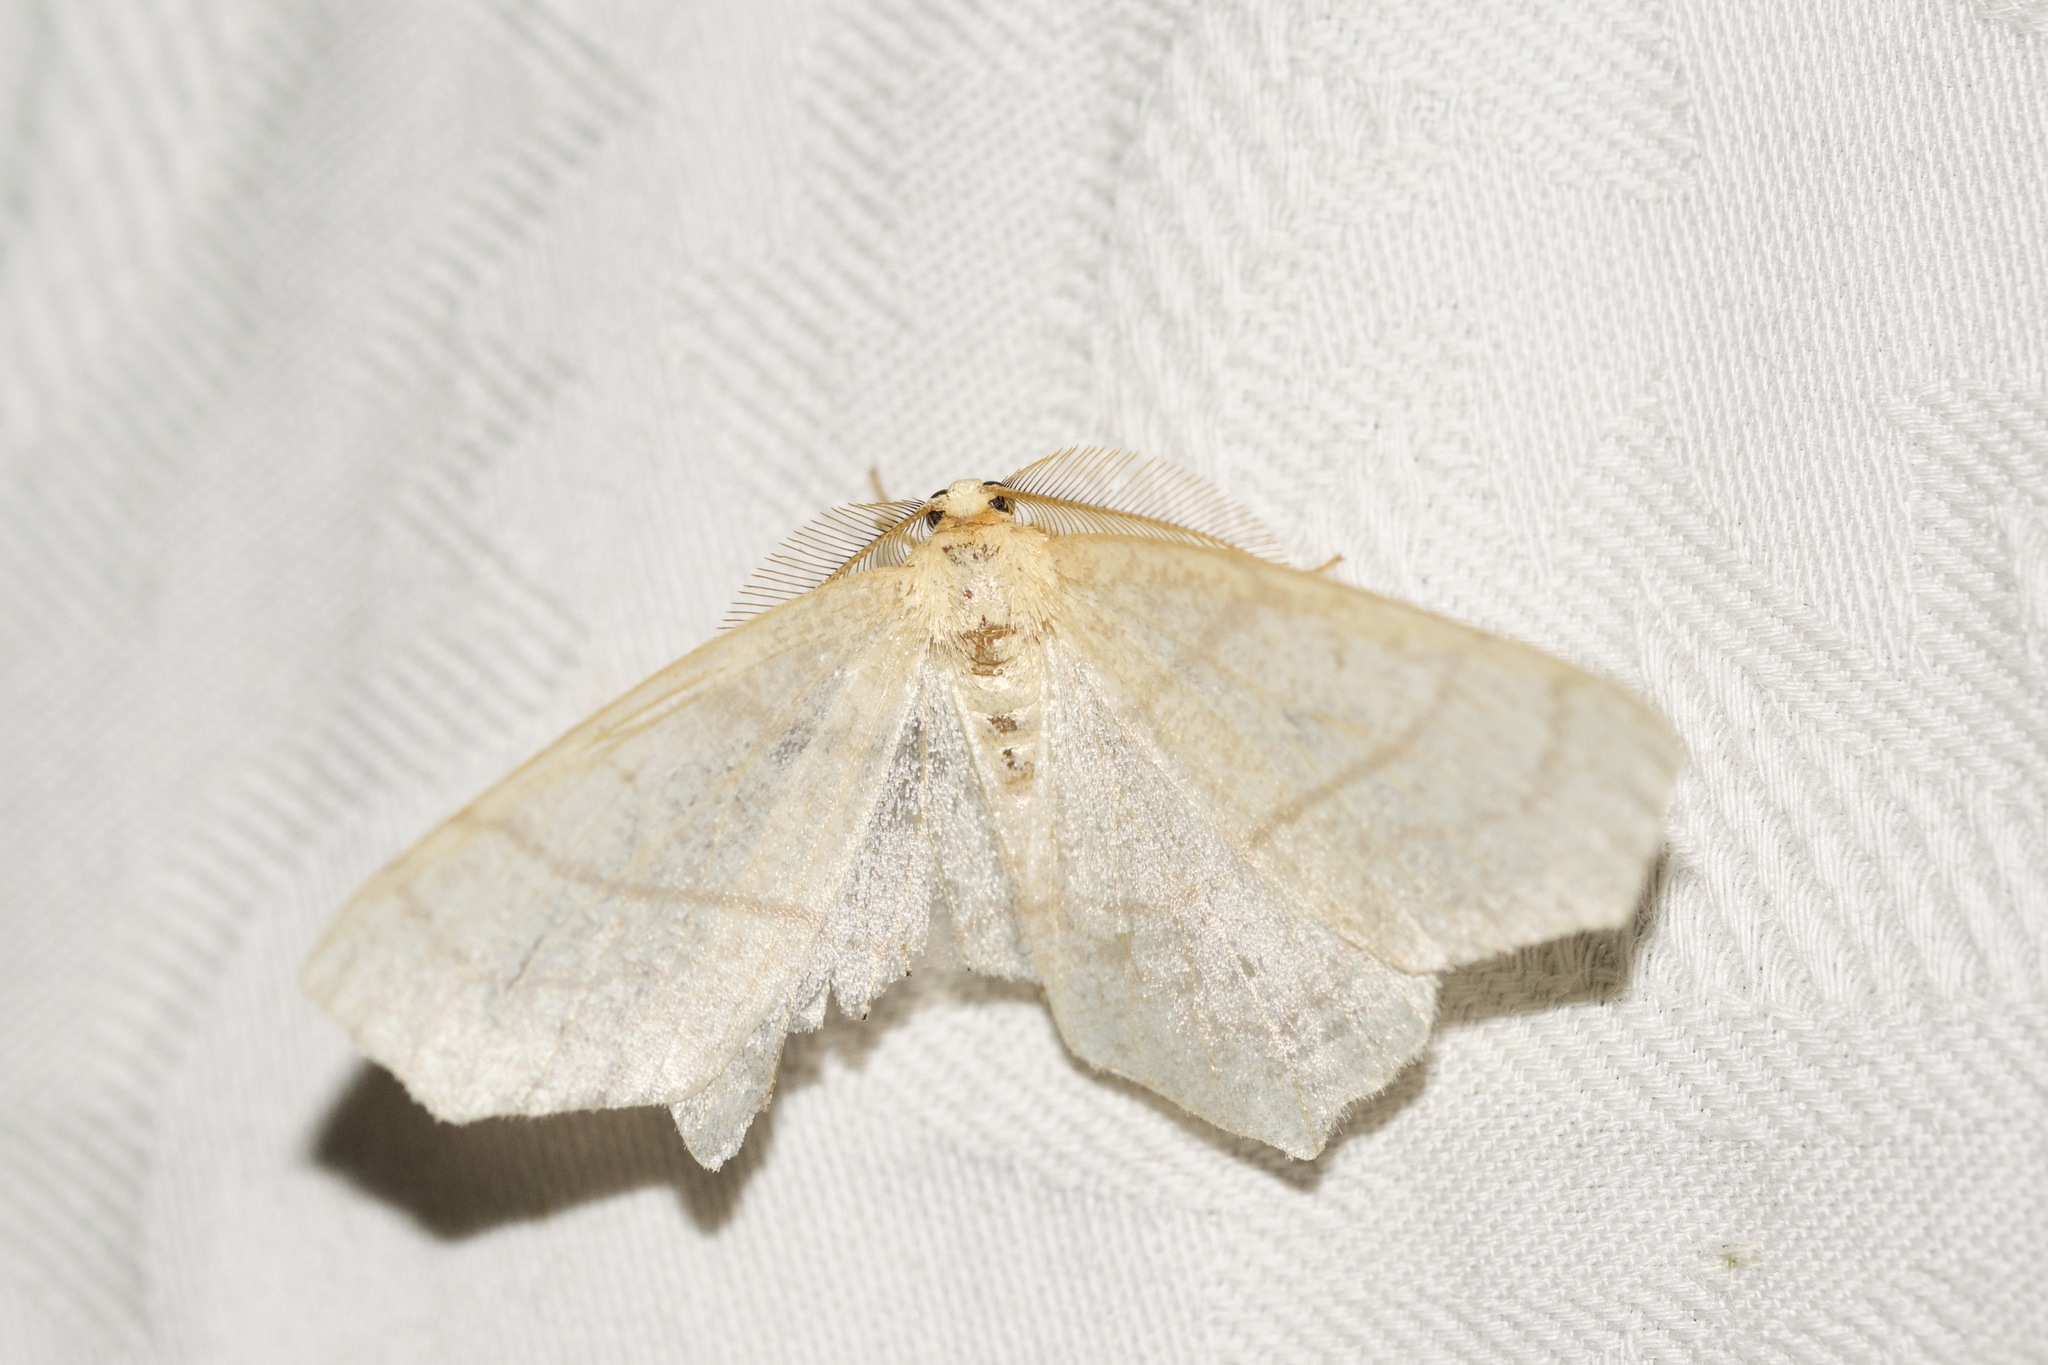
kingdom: Animalia
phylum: Arthropoda
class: Insecta
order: Lepidoptera
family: Geometridae
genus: Besma
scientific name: Besma endropiaria
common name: Straw besma
